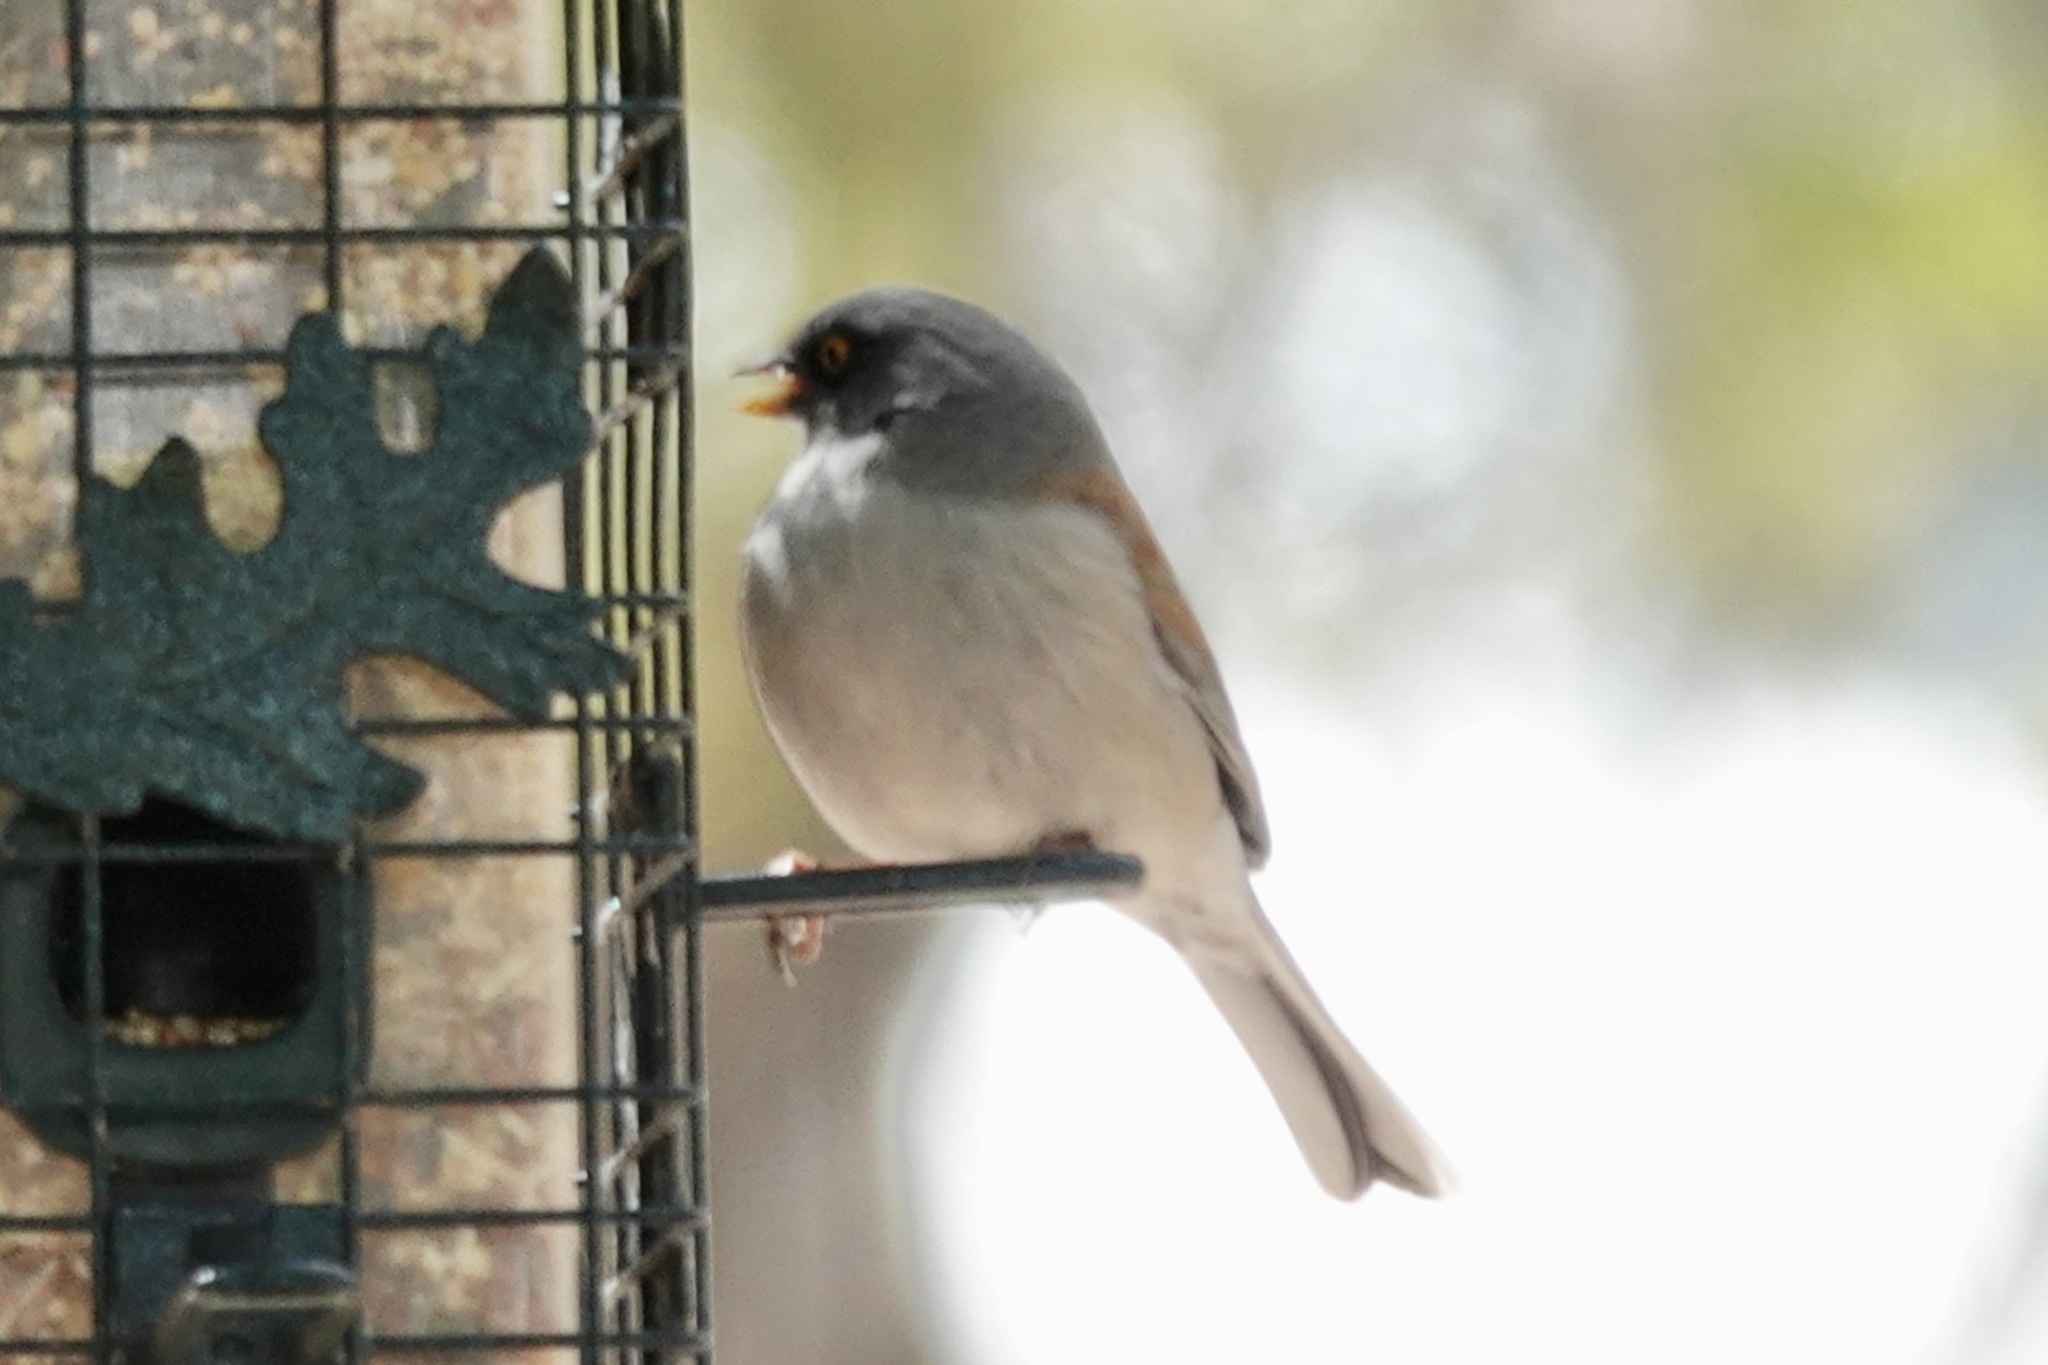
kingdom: Animalia
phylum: Chordata
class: Aves
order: Passeriformes
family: Passerellidae
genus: Junco
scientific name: Junco phaeonotus
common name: Yellow-eyed junco
